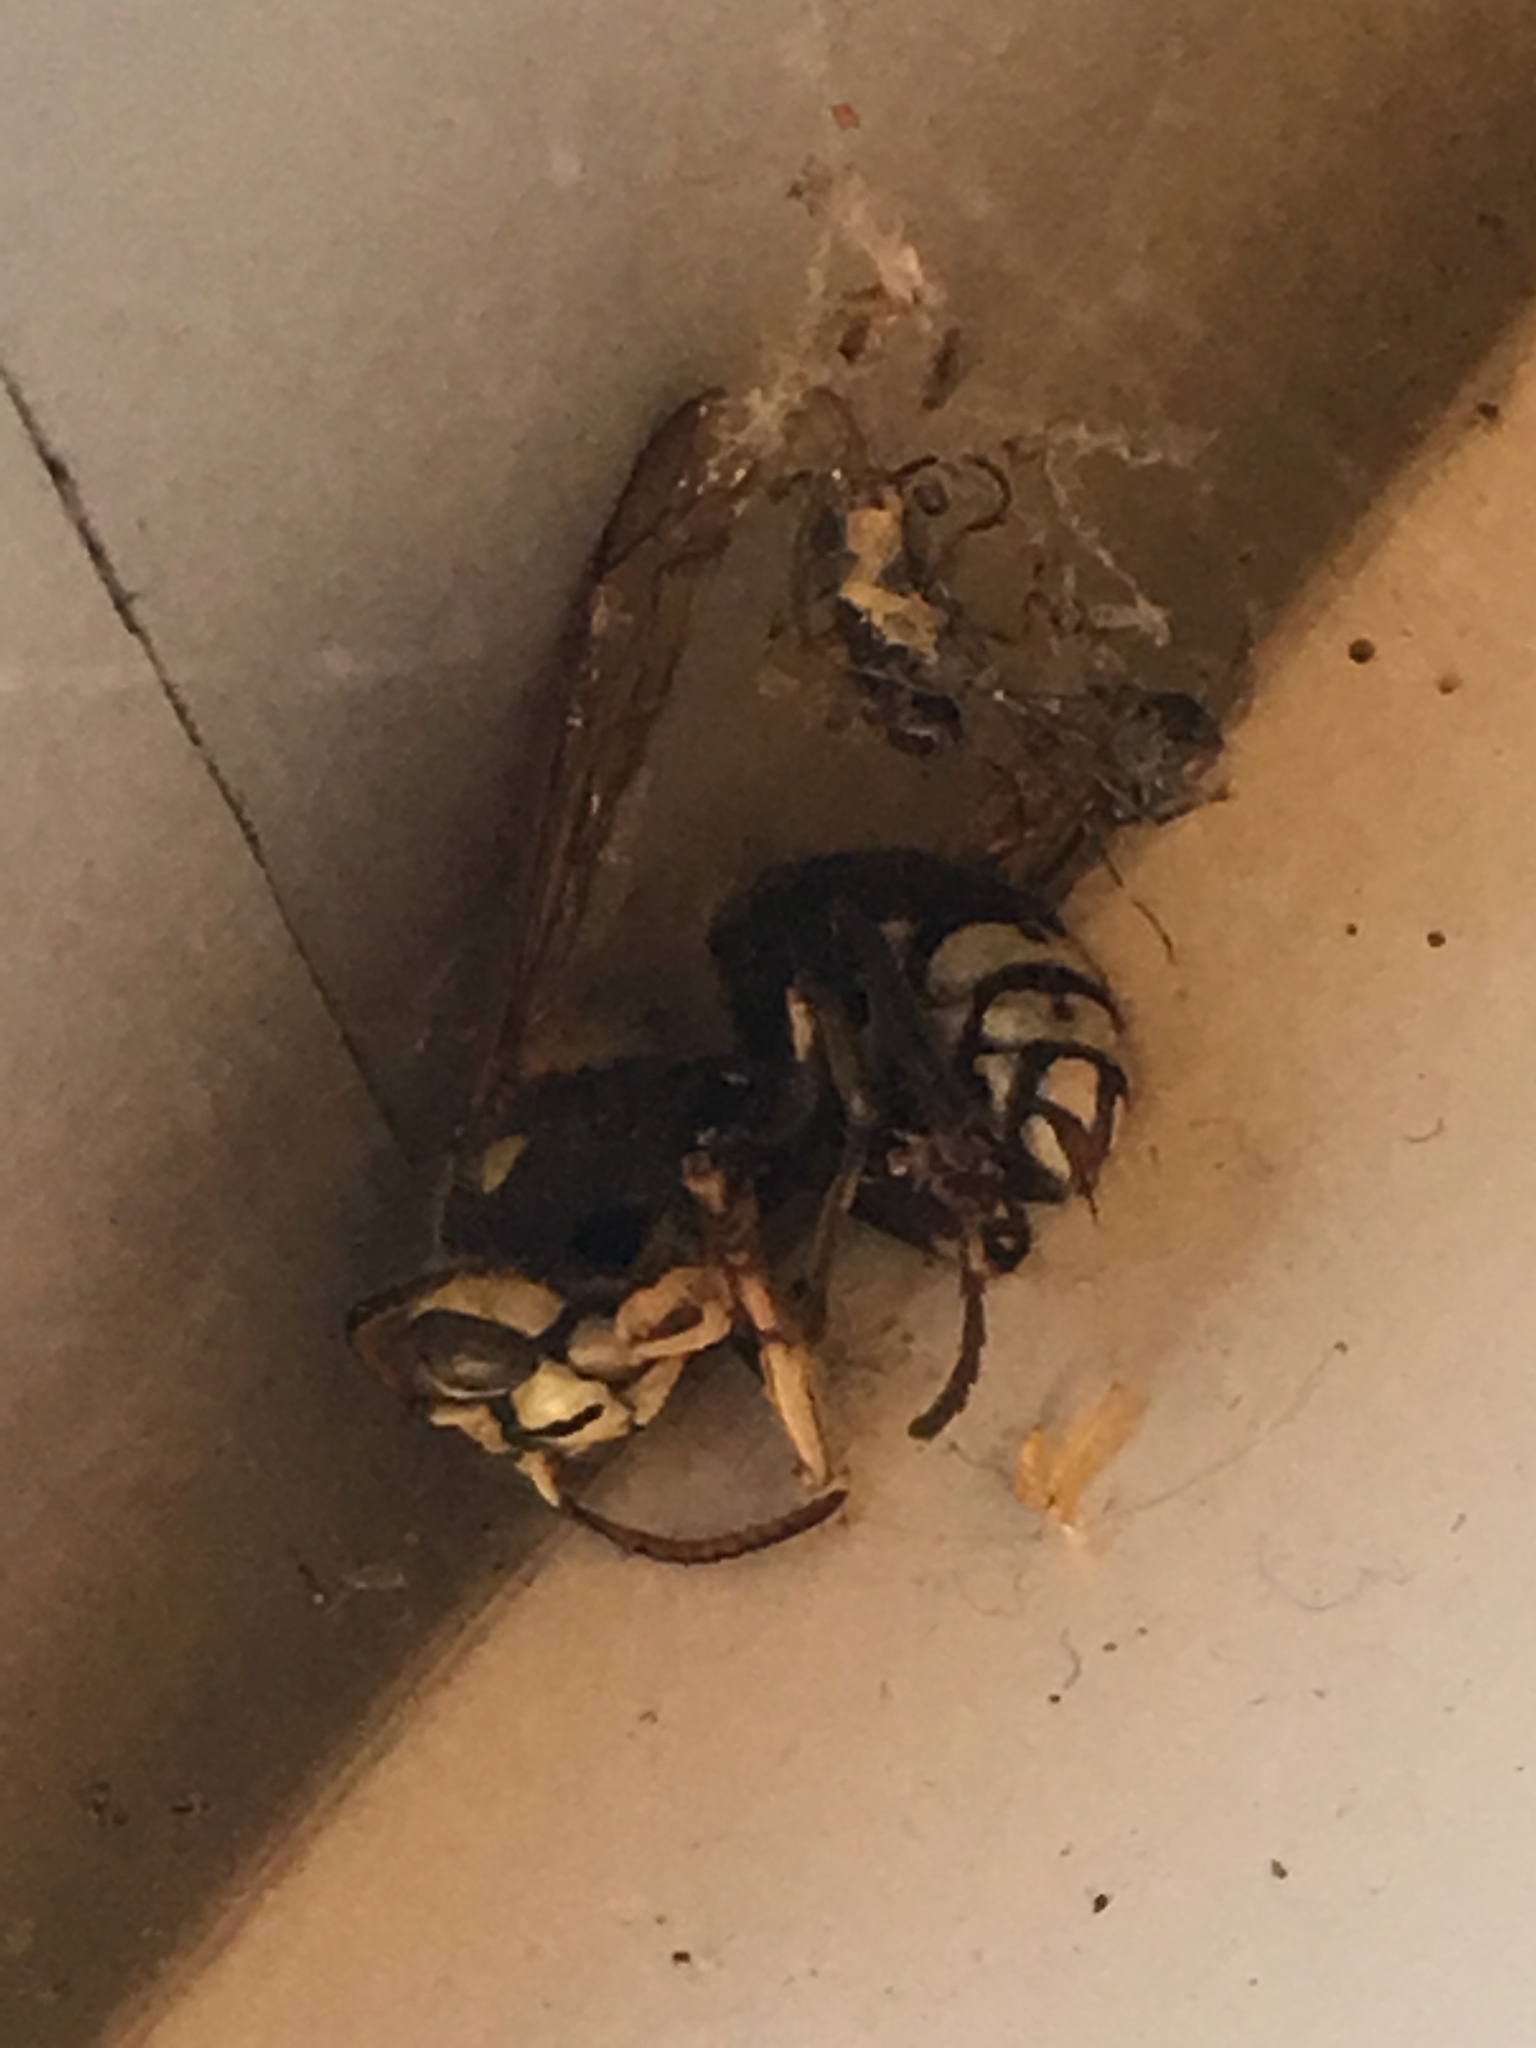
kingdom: Animalia
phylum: Arthropoda
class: Insecta
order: Hymenoptera
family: Vespidae
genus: Dolichovespula
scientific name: Dolichovespula maculata
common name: Bald-faced hornet
